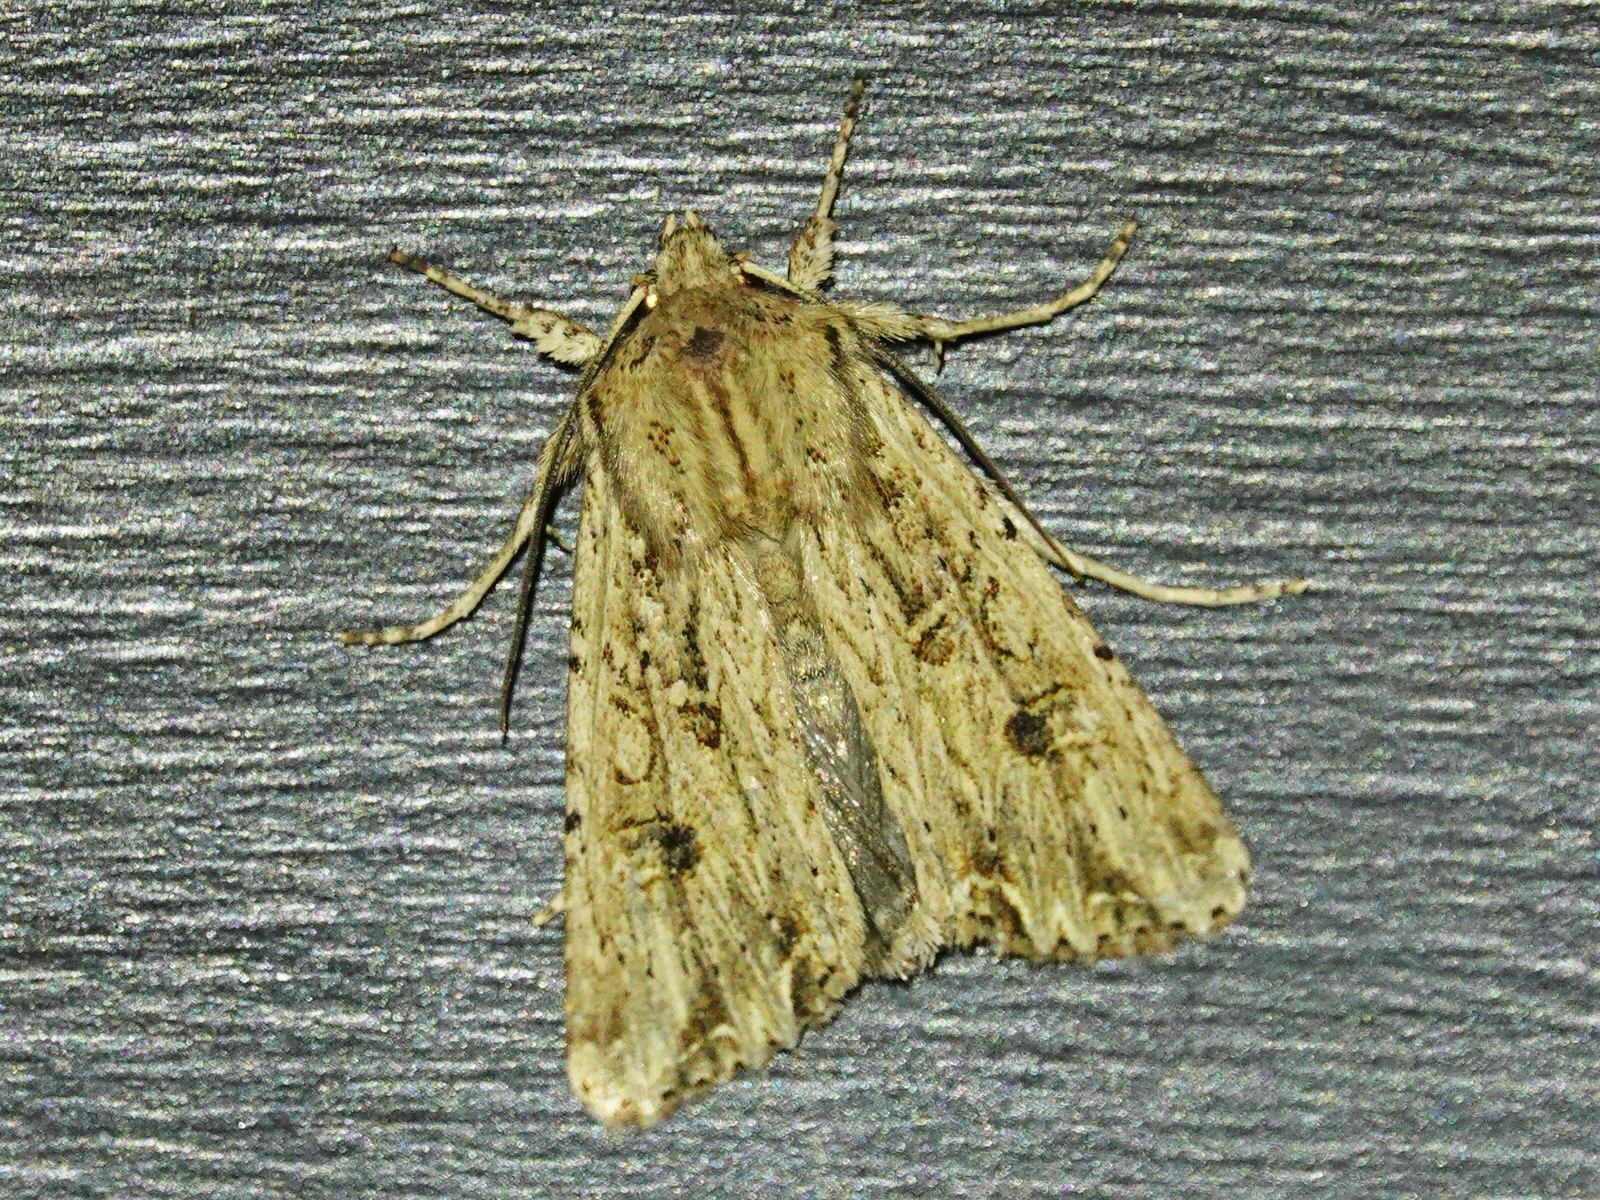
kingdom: Animalia
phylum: Arthropoda
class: Insecta
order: Lepidoptera
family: Noctuidae
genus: Ichneutica
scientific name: Ichneutica lignana
